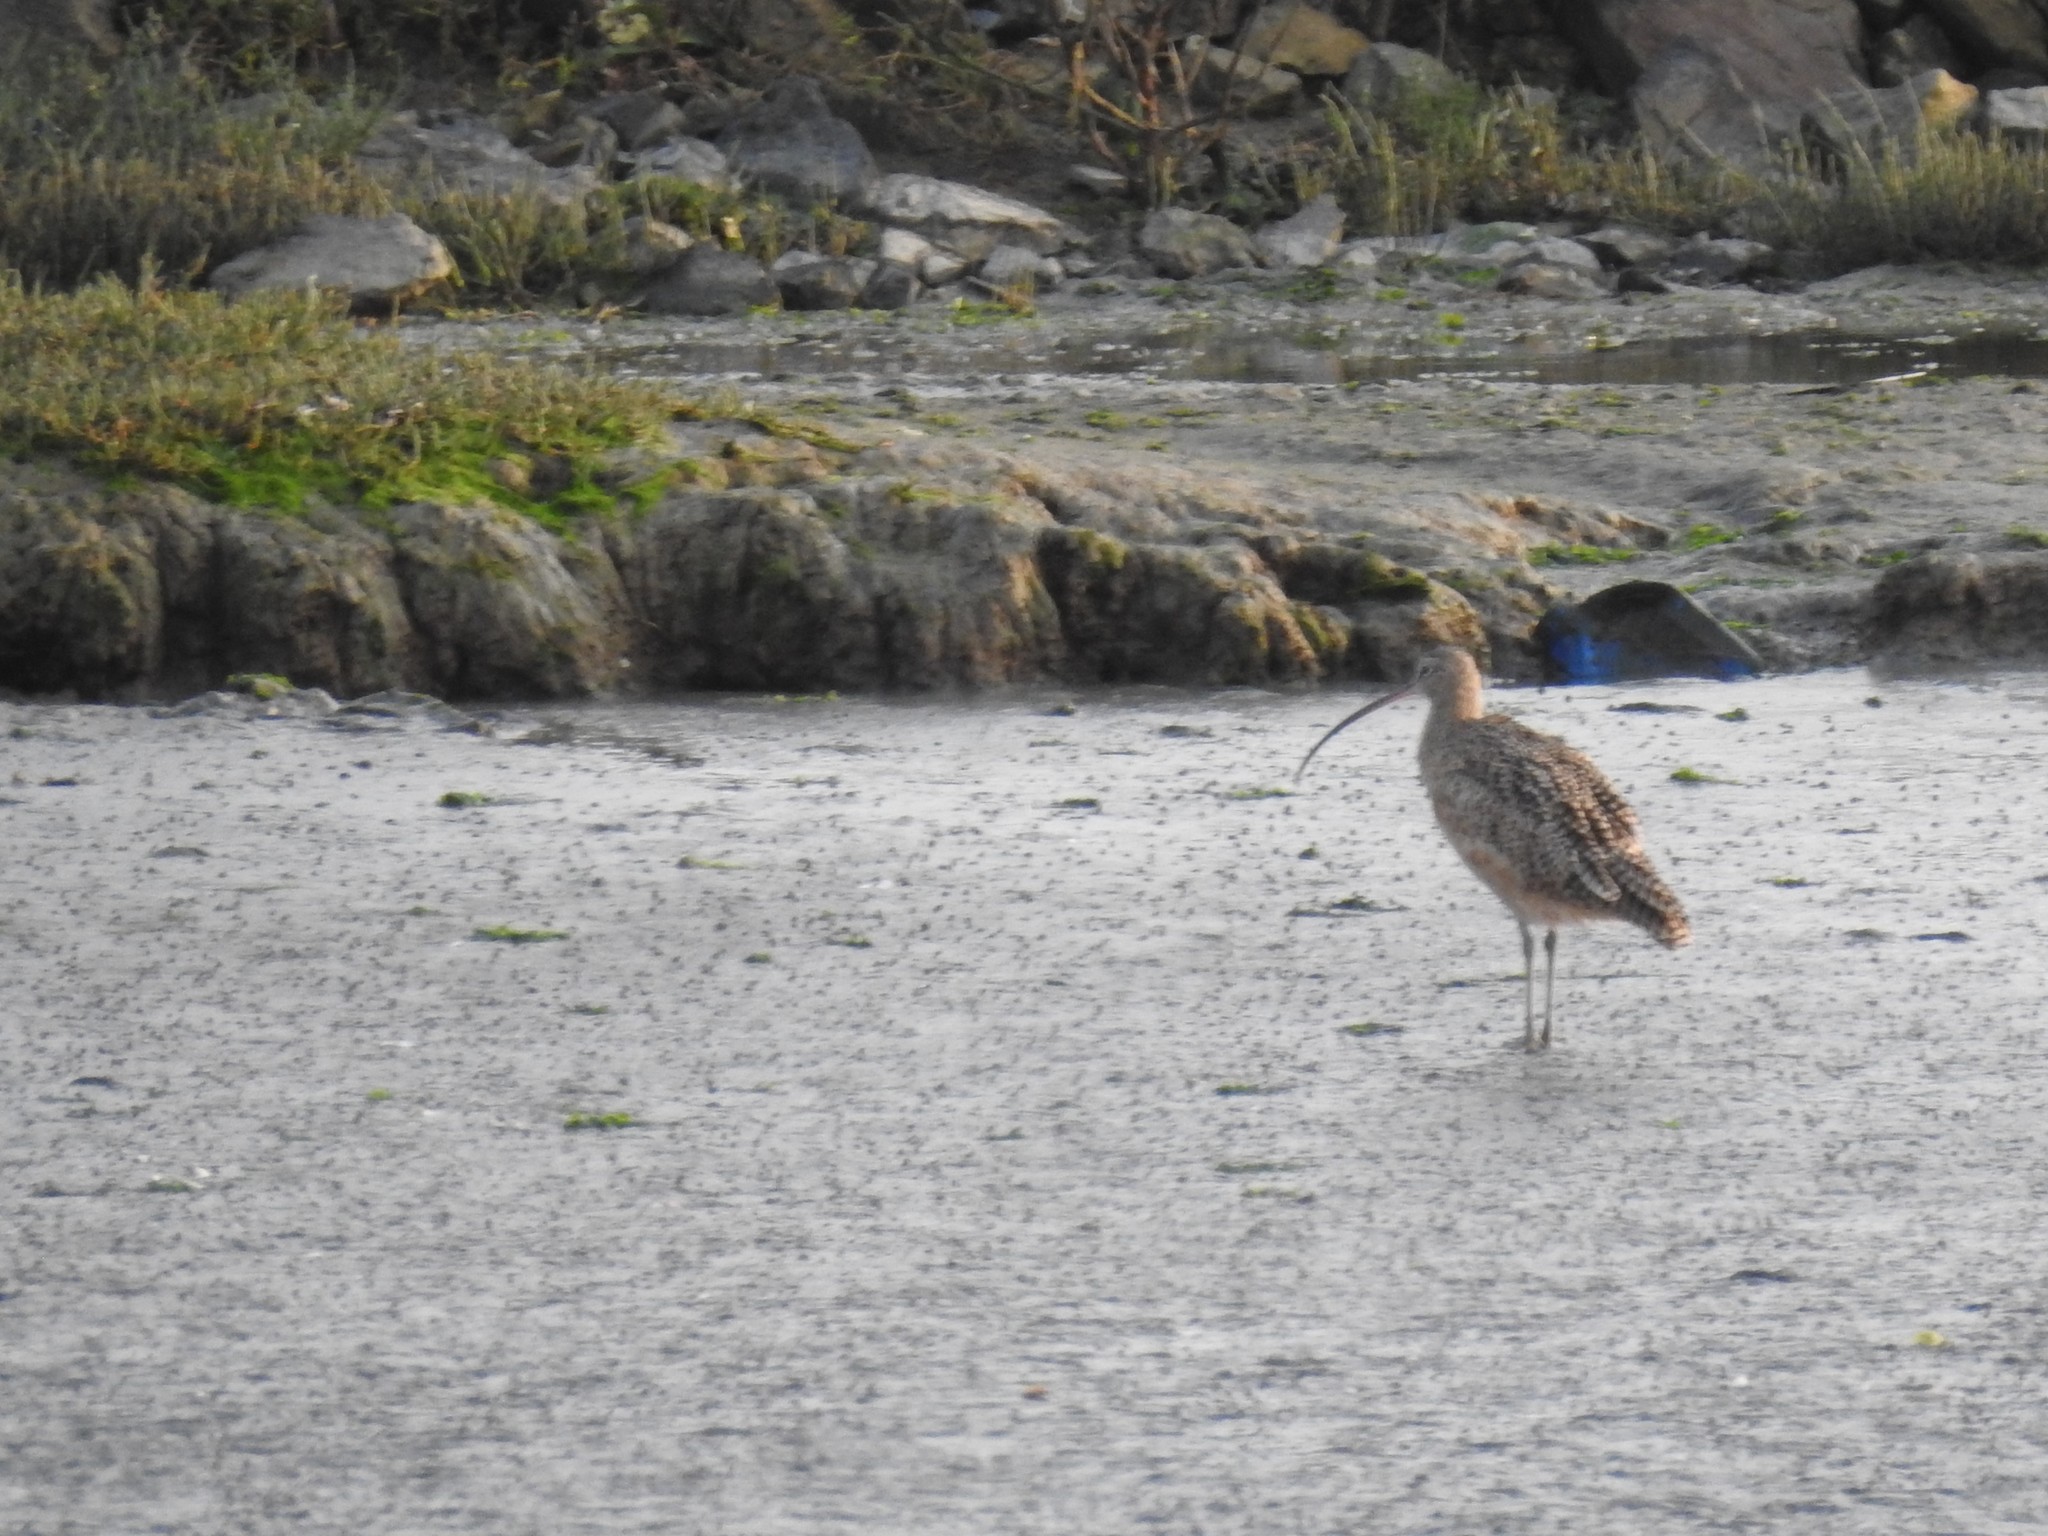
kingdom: Animalia
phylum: Chordata
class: Aves
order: Charadriiformes
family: Scolopacidae
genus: Numenius
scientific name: Numenius americanus
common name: Long-billed curlew
